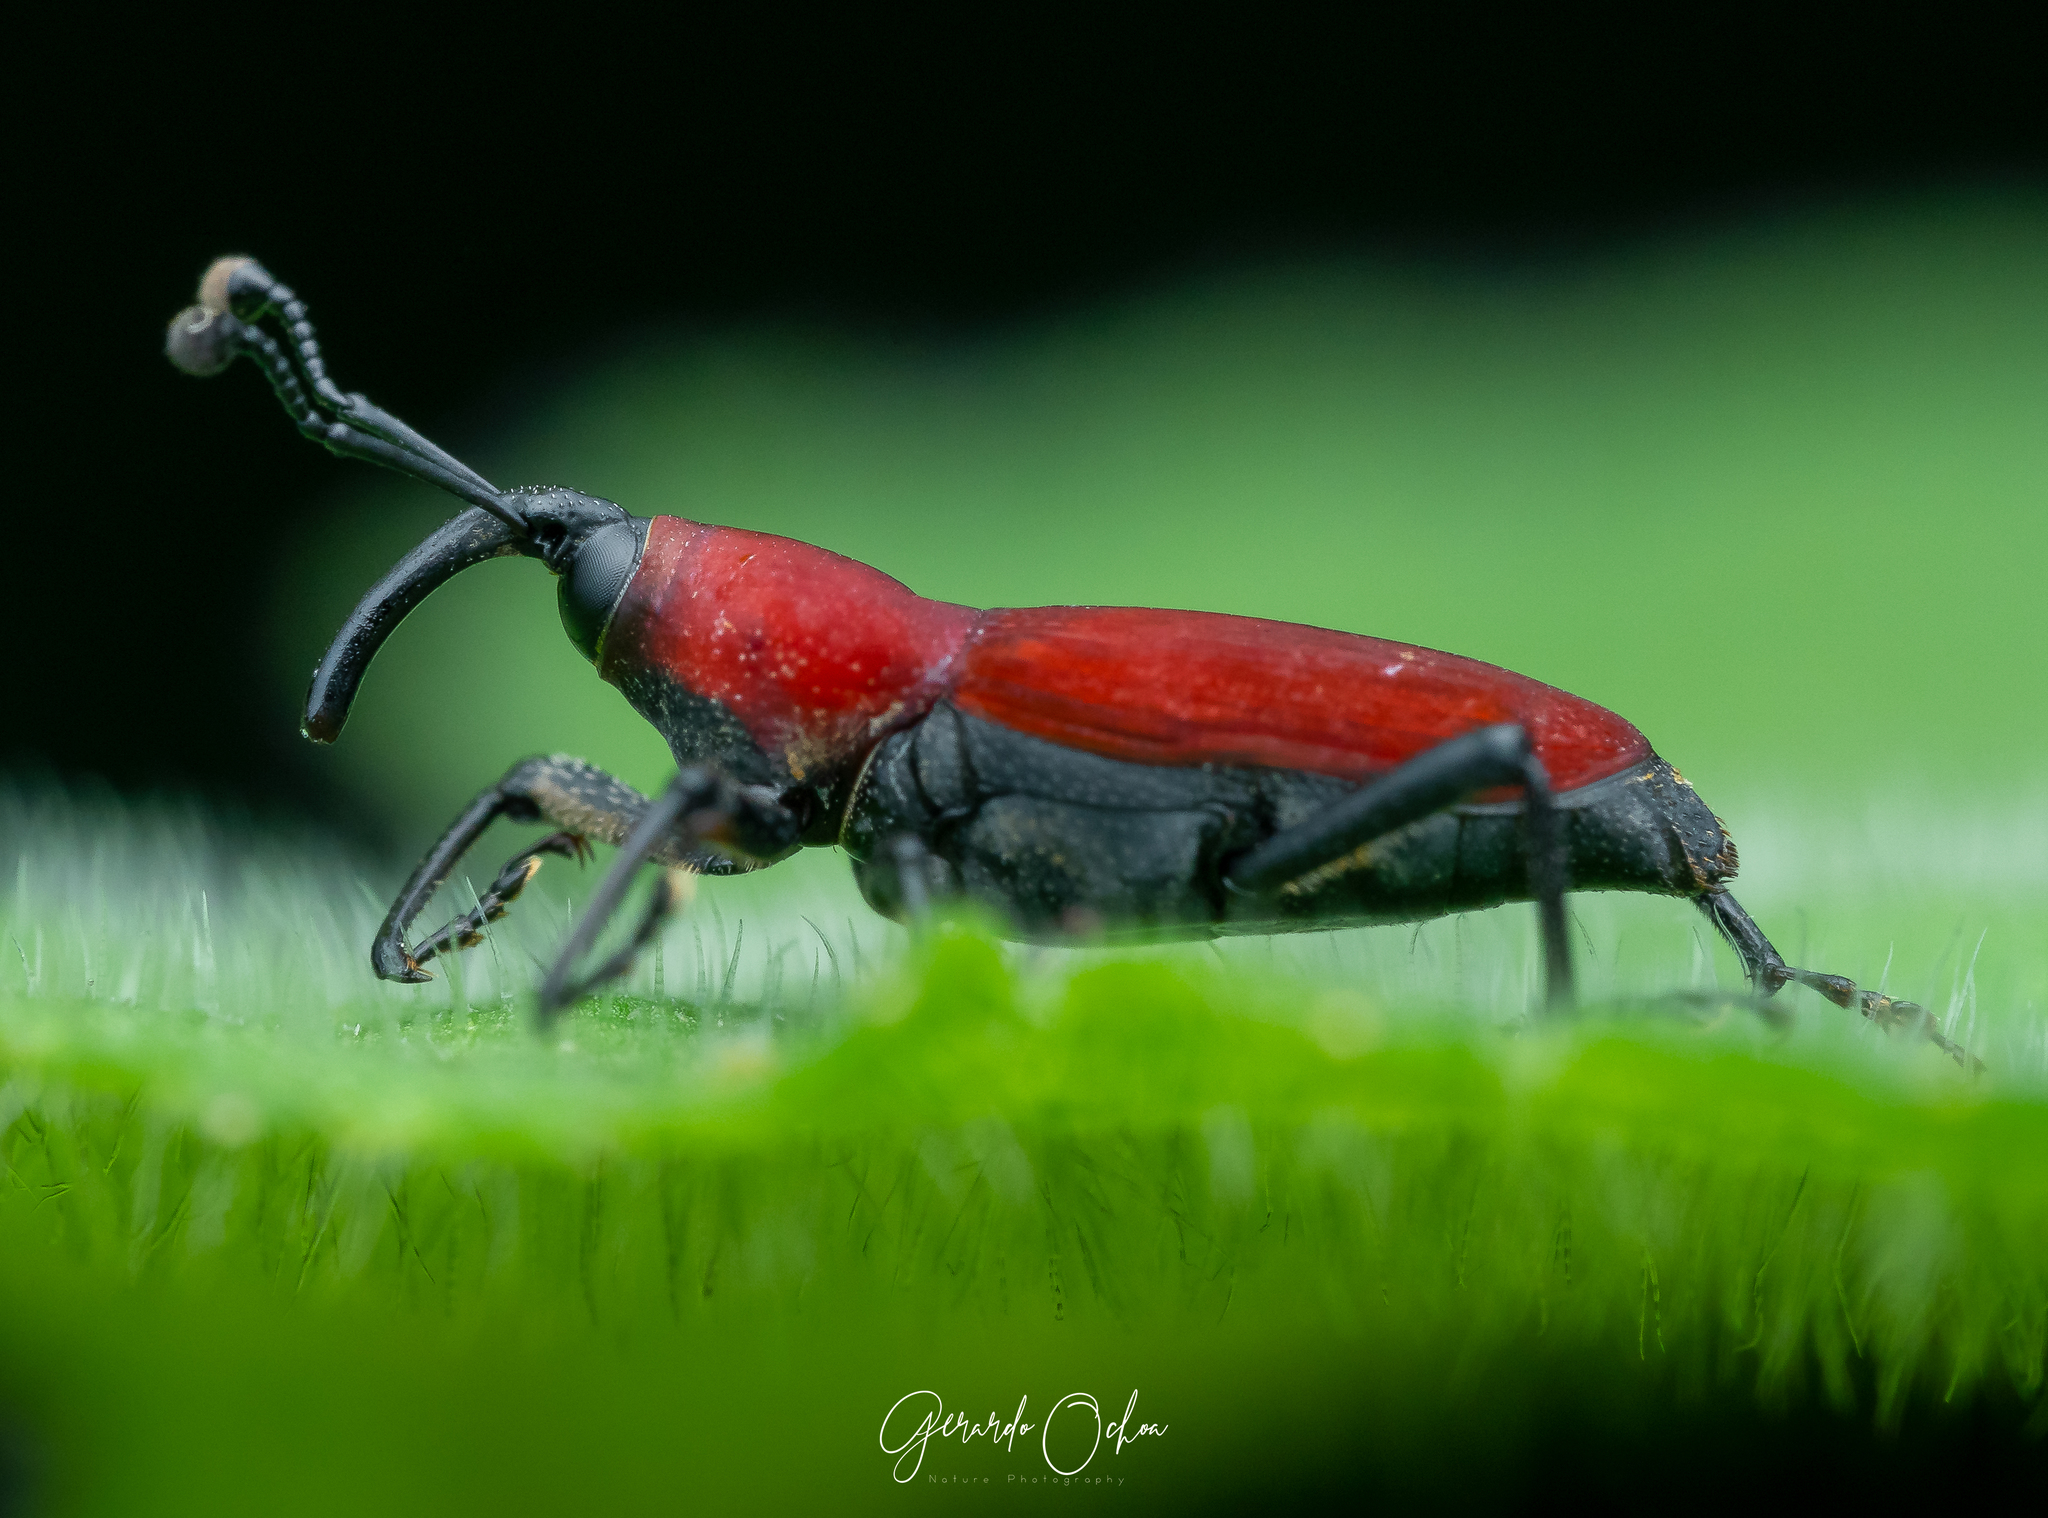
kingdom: Animalia
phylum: Arthropoda
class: Insecta
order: Coleoptera
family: Dryophthoridae
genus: Rhodobaenus
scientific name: Rhodobaenus sanguineus
